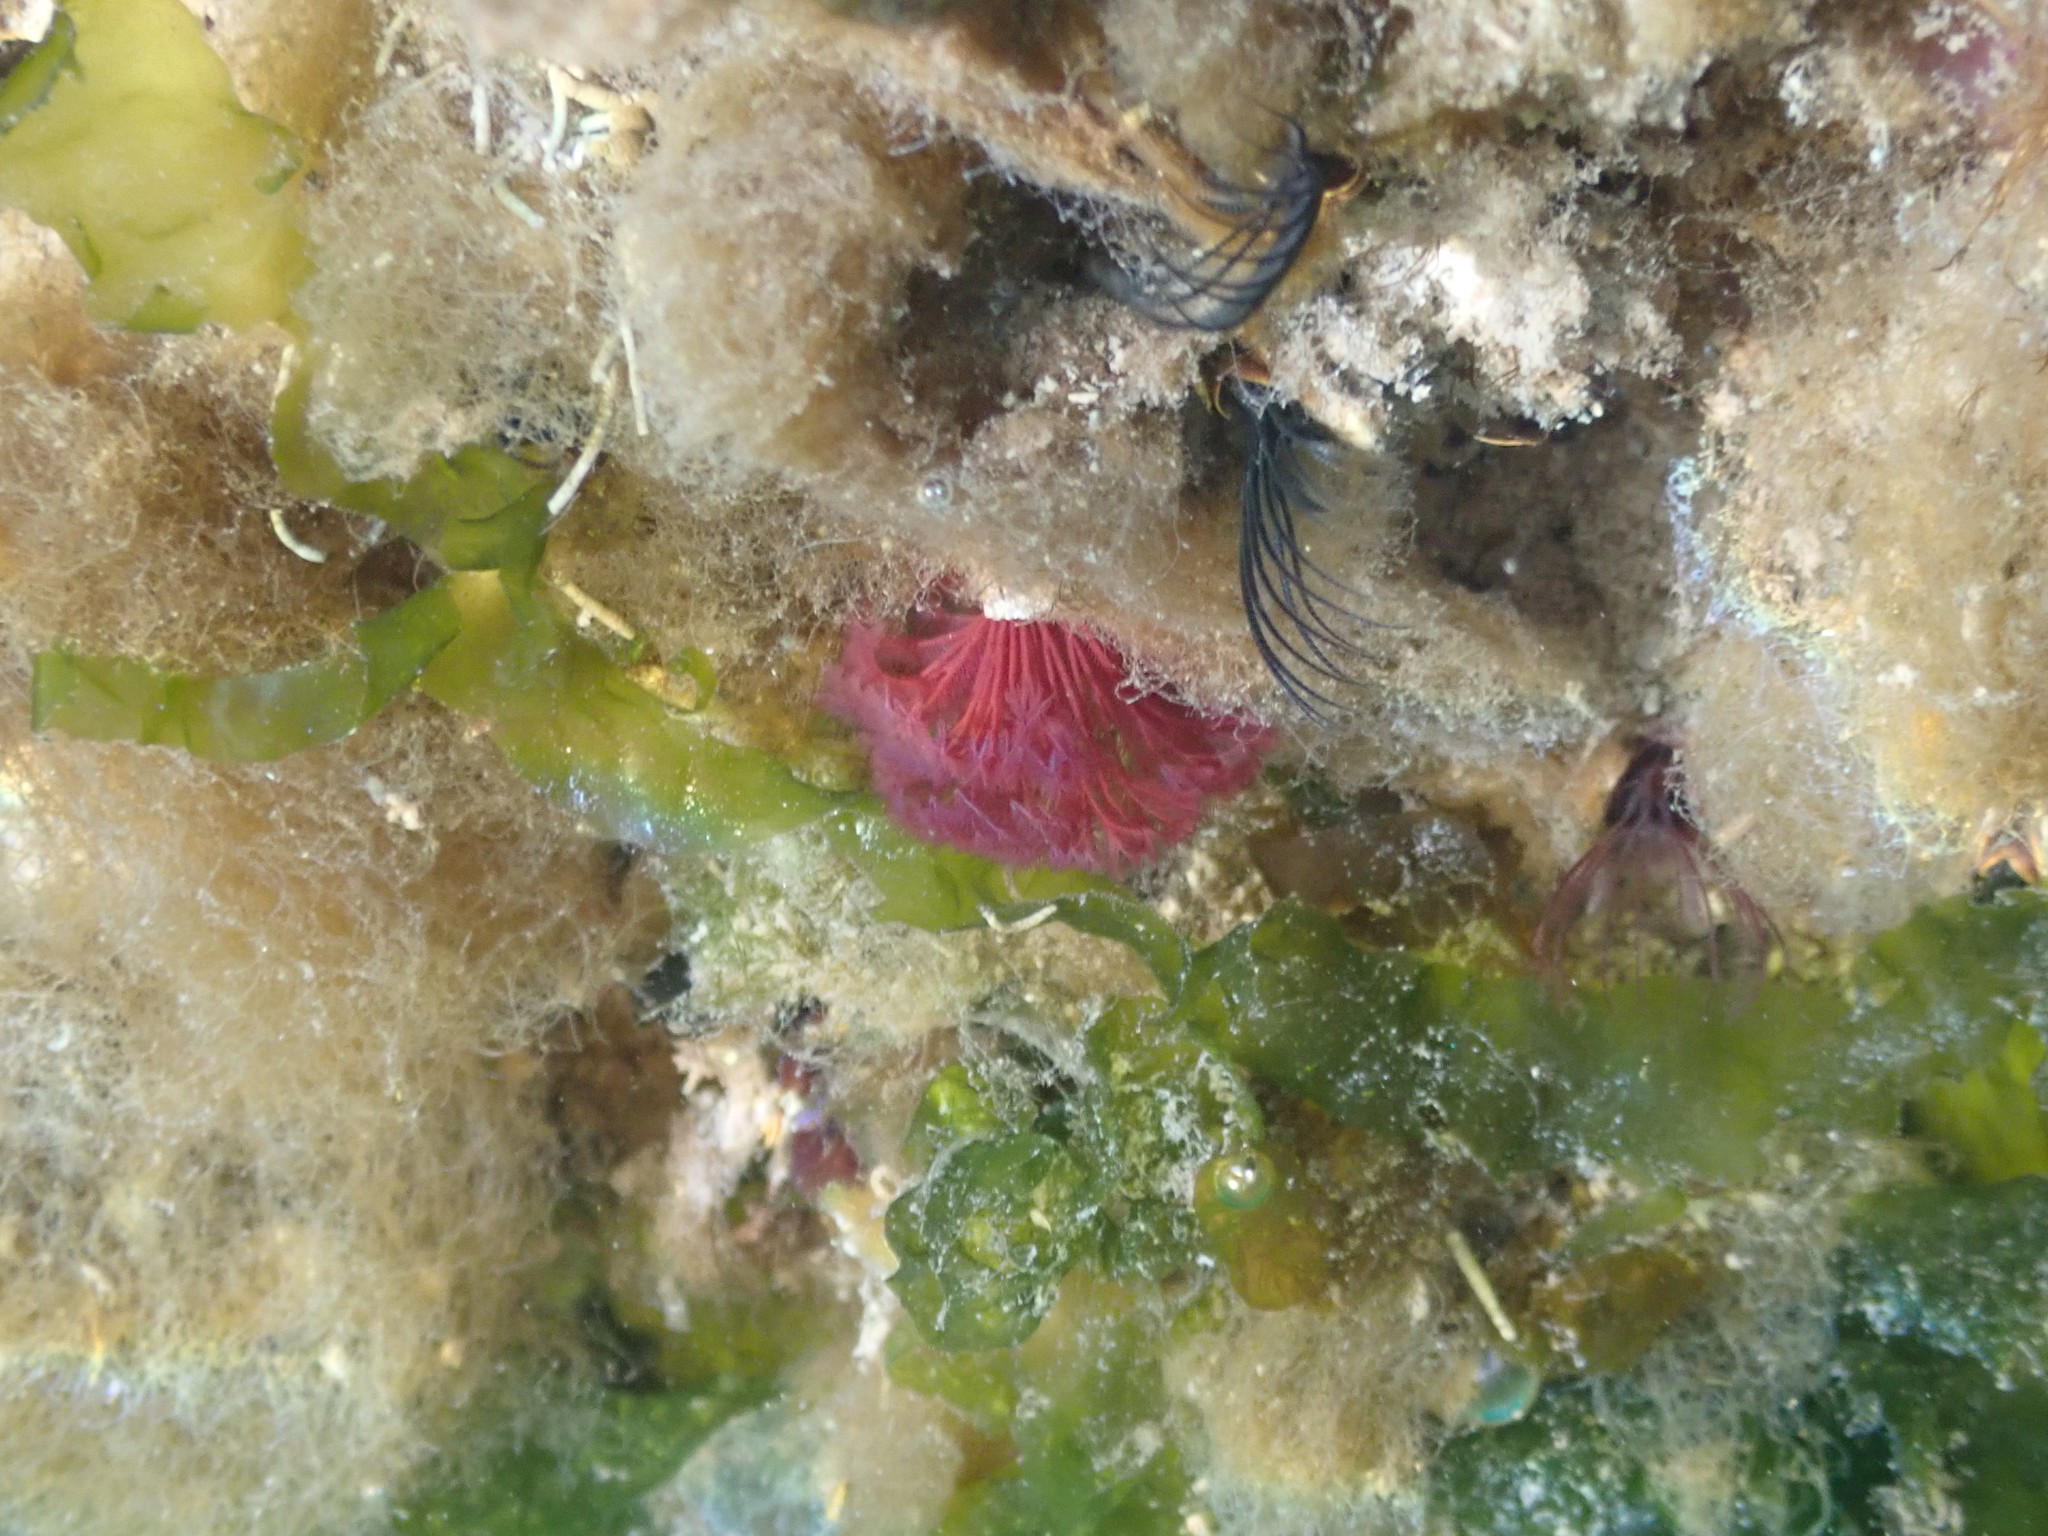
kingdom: Animalia
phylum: Annelida
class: Polychaeta
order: Sabellida
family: Sabellidae
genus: Schizobranchia
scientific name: Schizobranchia insignis
